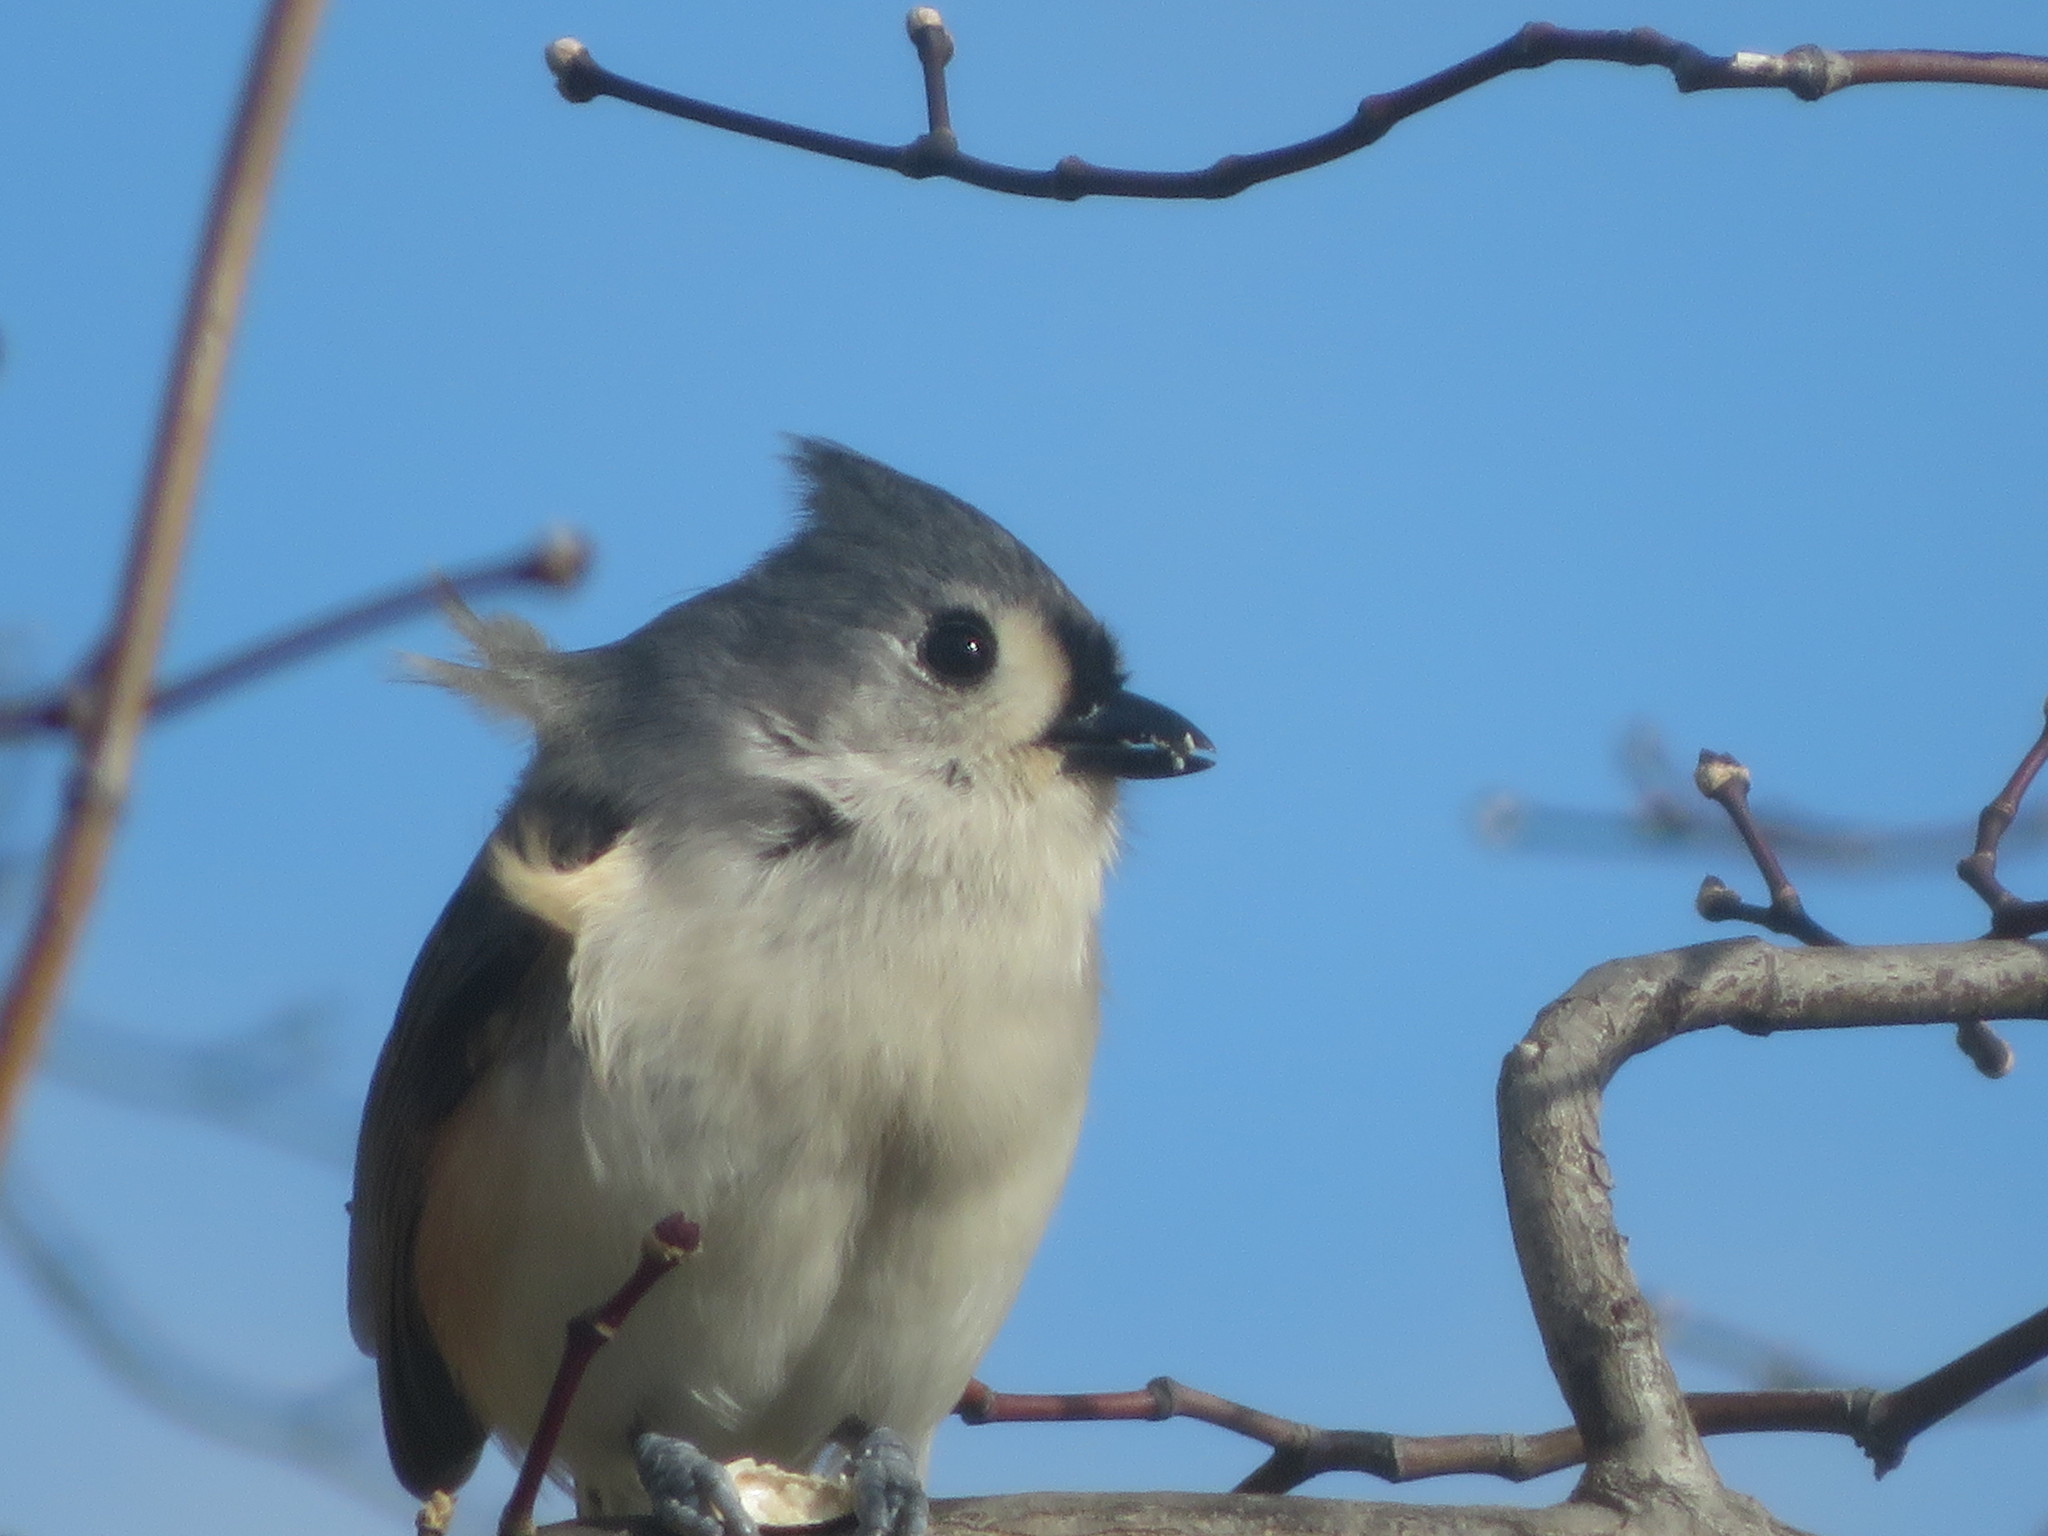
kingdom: Animalia
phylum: Chordata
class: Aves
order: Passeriformes
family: Paridae
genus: Baeolophus
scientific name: Baeolophus bicolor
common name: Tufted titmouse
